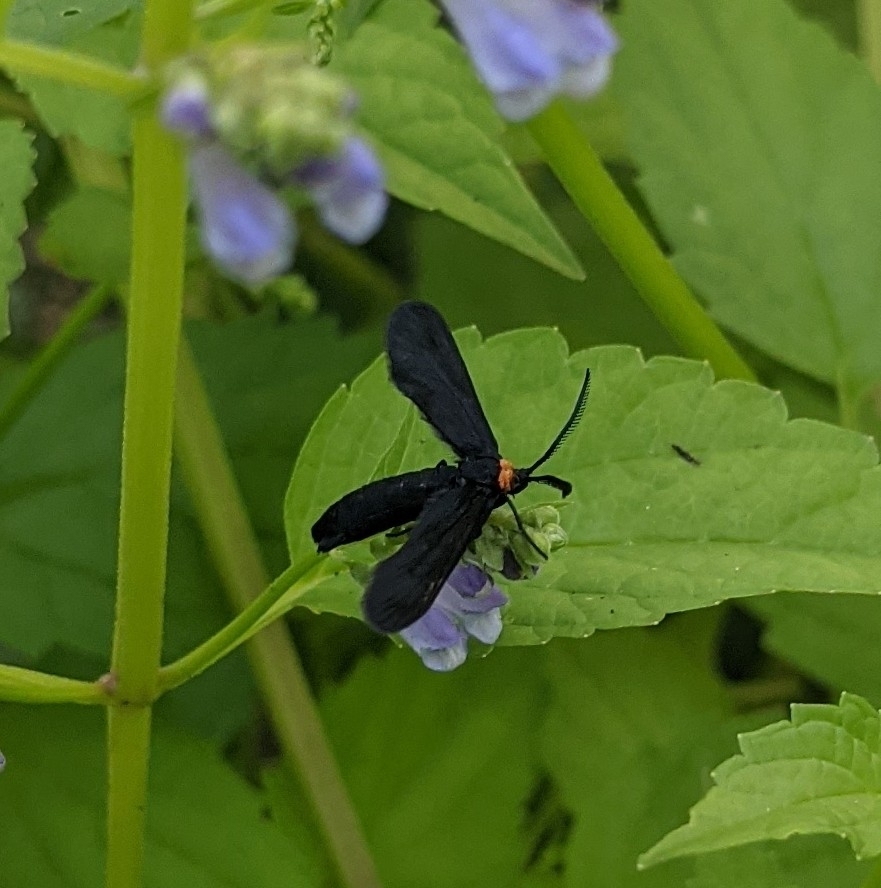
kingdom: Animalia
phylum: Arthropoda
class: Insecta
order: Lepidoptera
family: Zygaenidae
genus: Harrisina
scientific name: Harrisina americana
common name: Grapeleaf skeletonizer moth
